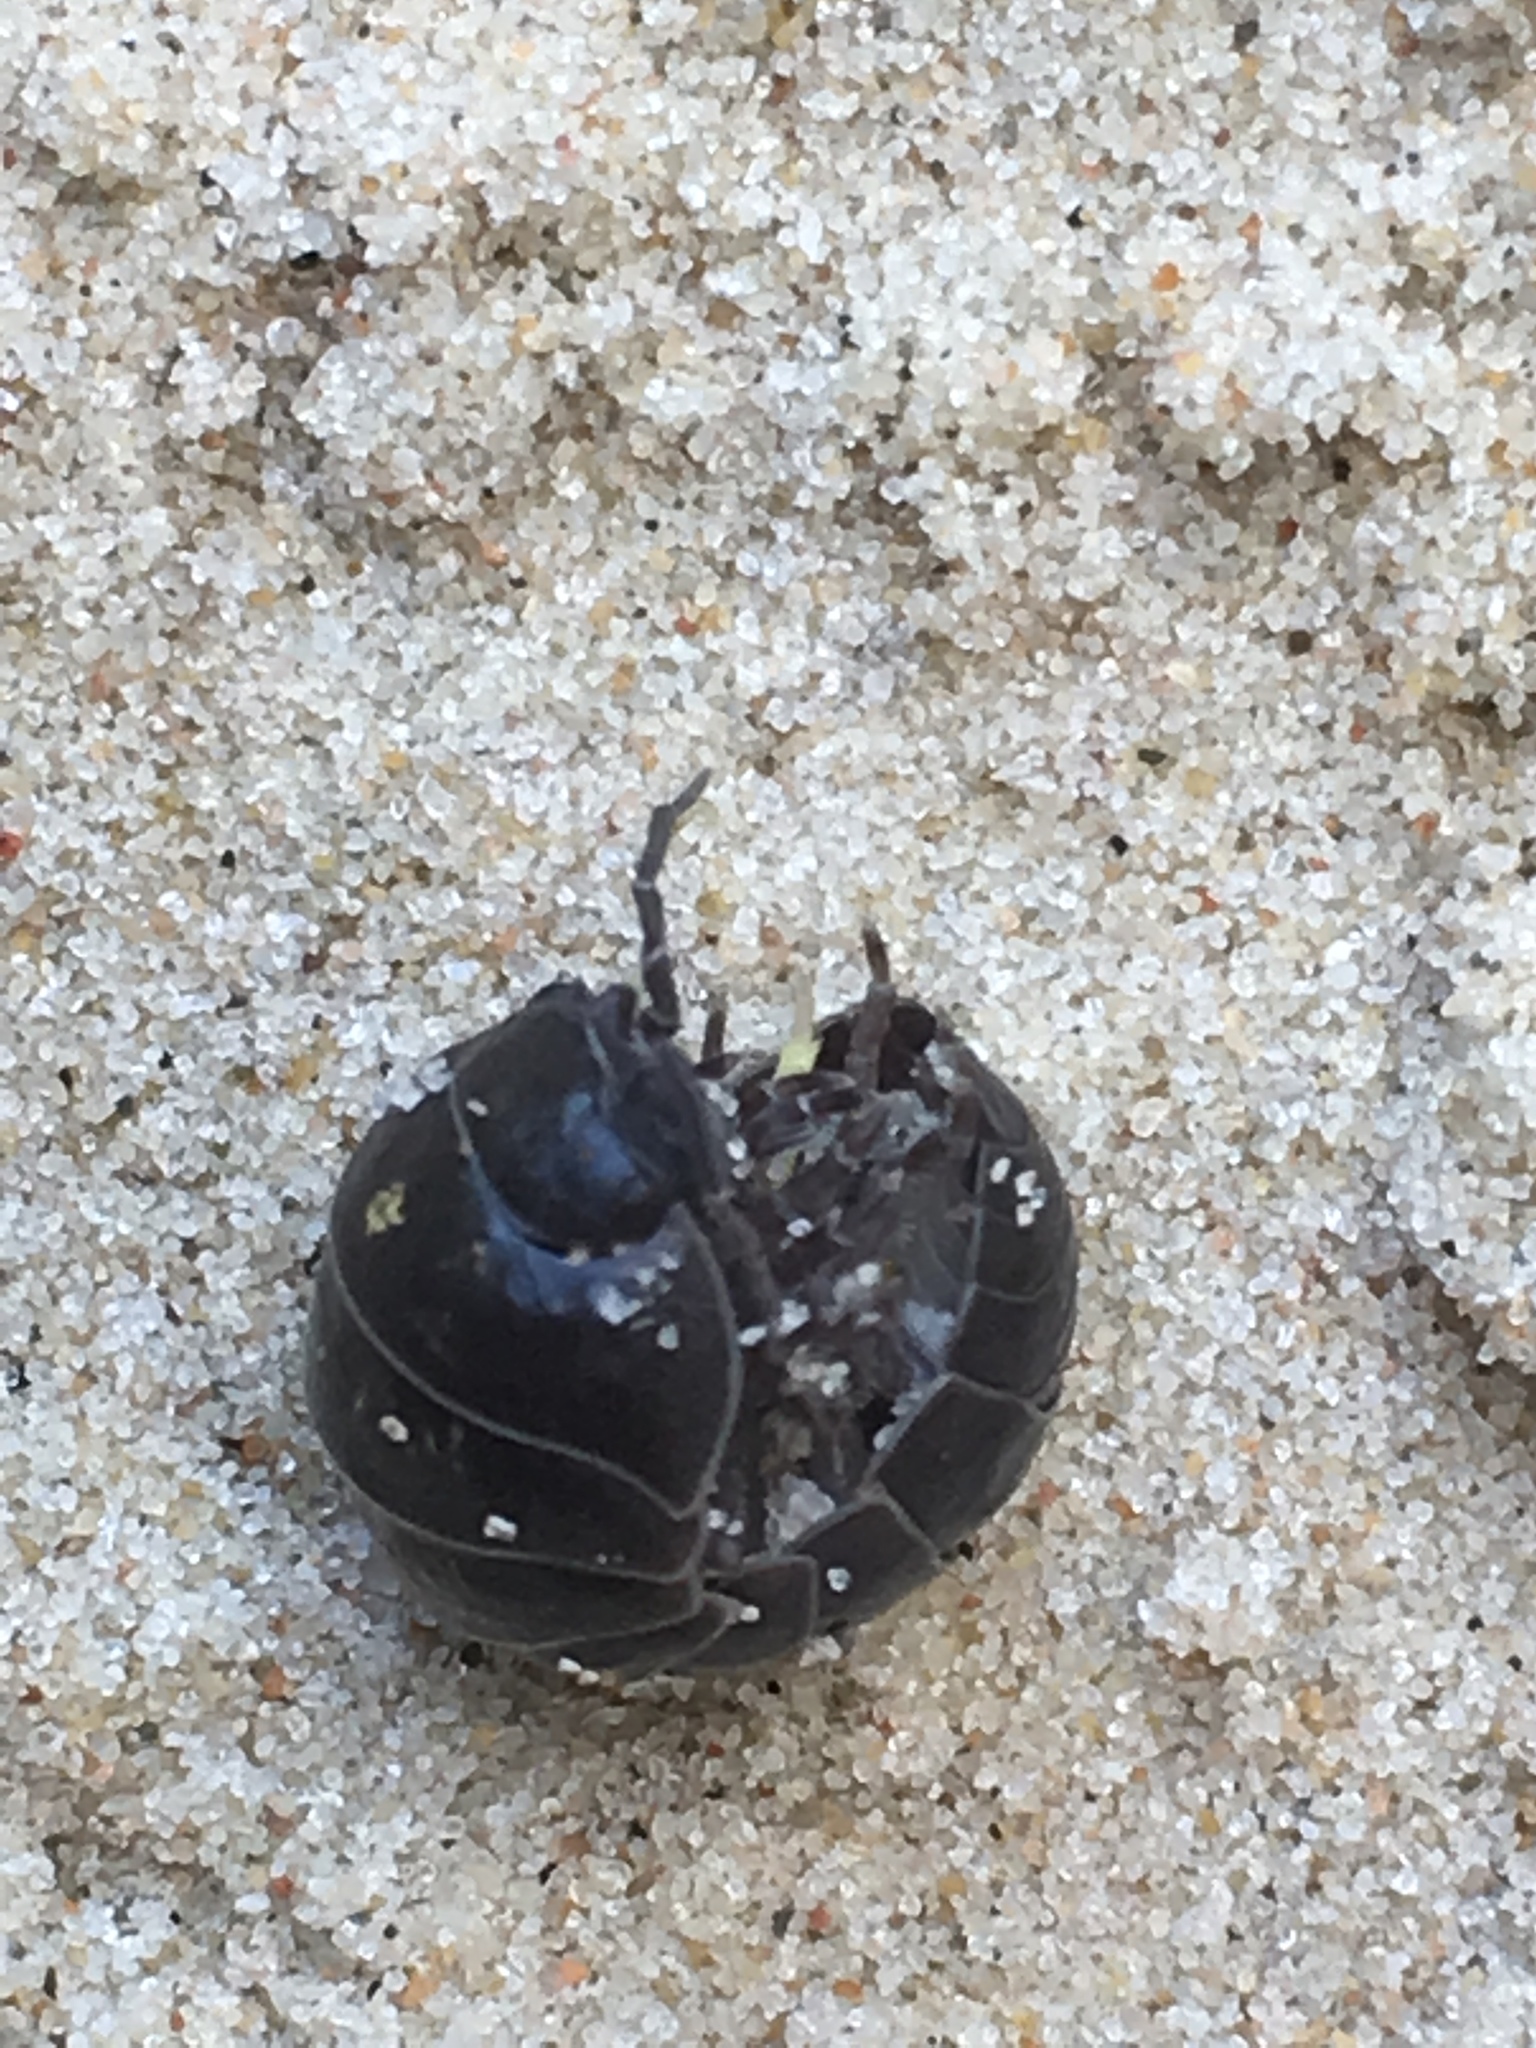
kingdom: Animalia
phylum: Arthropoda
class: Malacostraca
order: Isopoda
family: Armadillidiidae
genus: Armadillidium
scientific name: Armadillidium vulgare
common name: Common pill woodlouse
